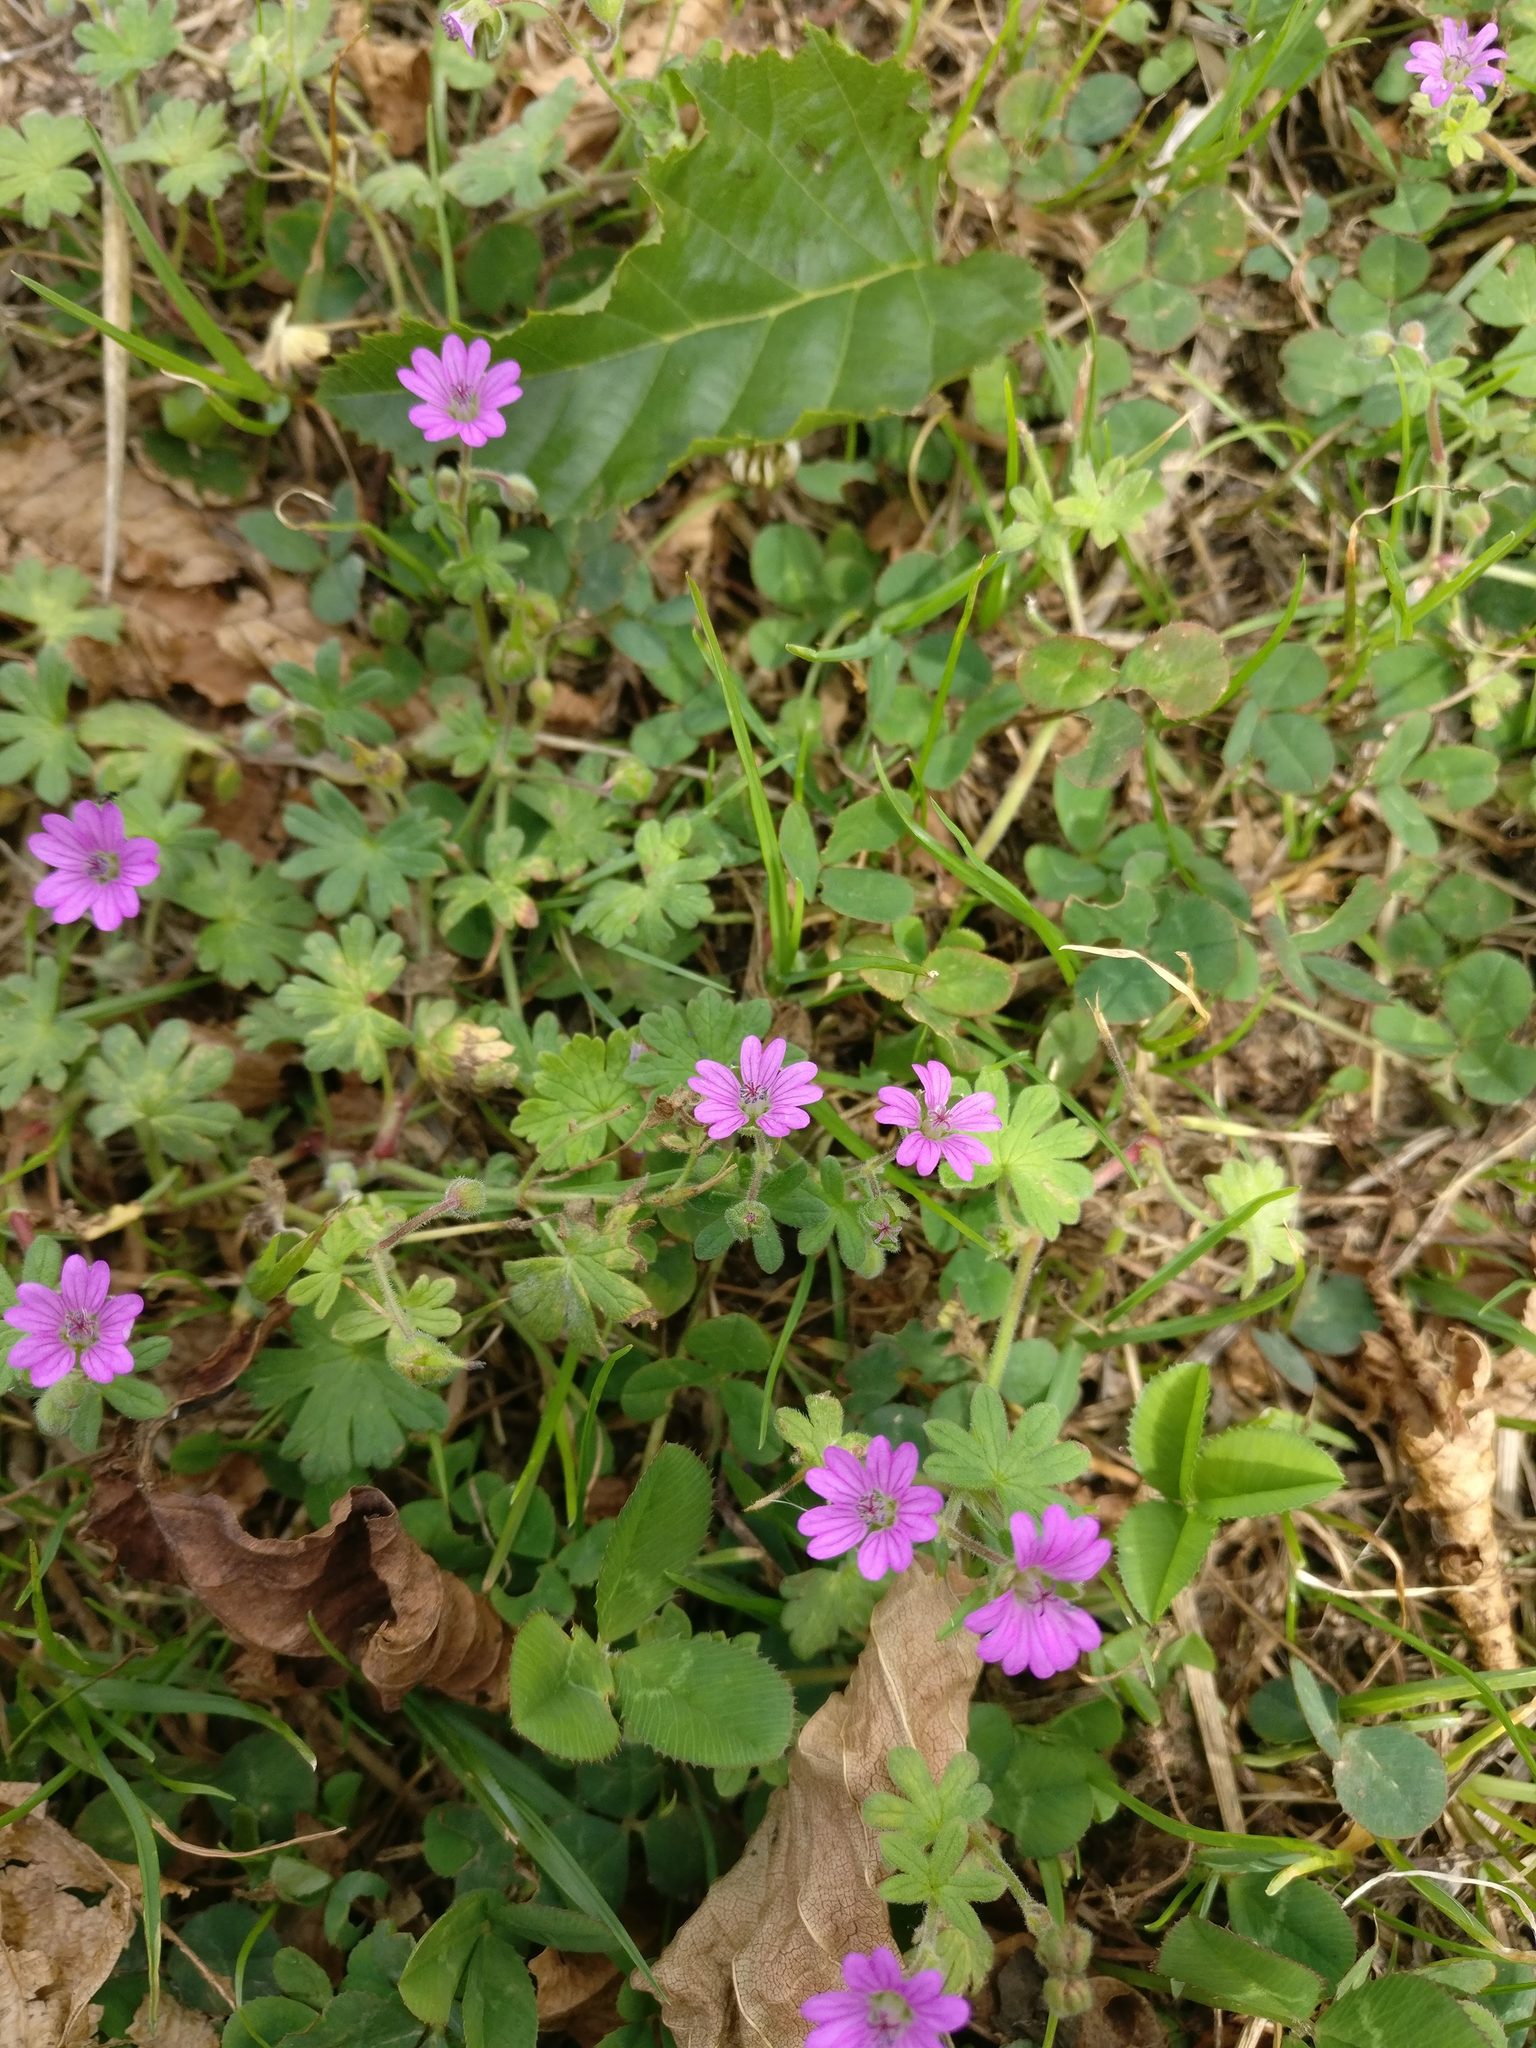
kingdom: Plantae
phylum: Tracheophyta
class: Magnoliopsida
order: Geraniales
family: Geraniaceae
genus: Geranium
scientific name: Geranium molle
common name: Dove's-foot crane's-bill
